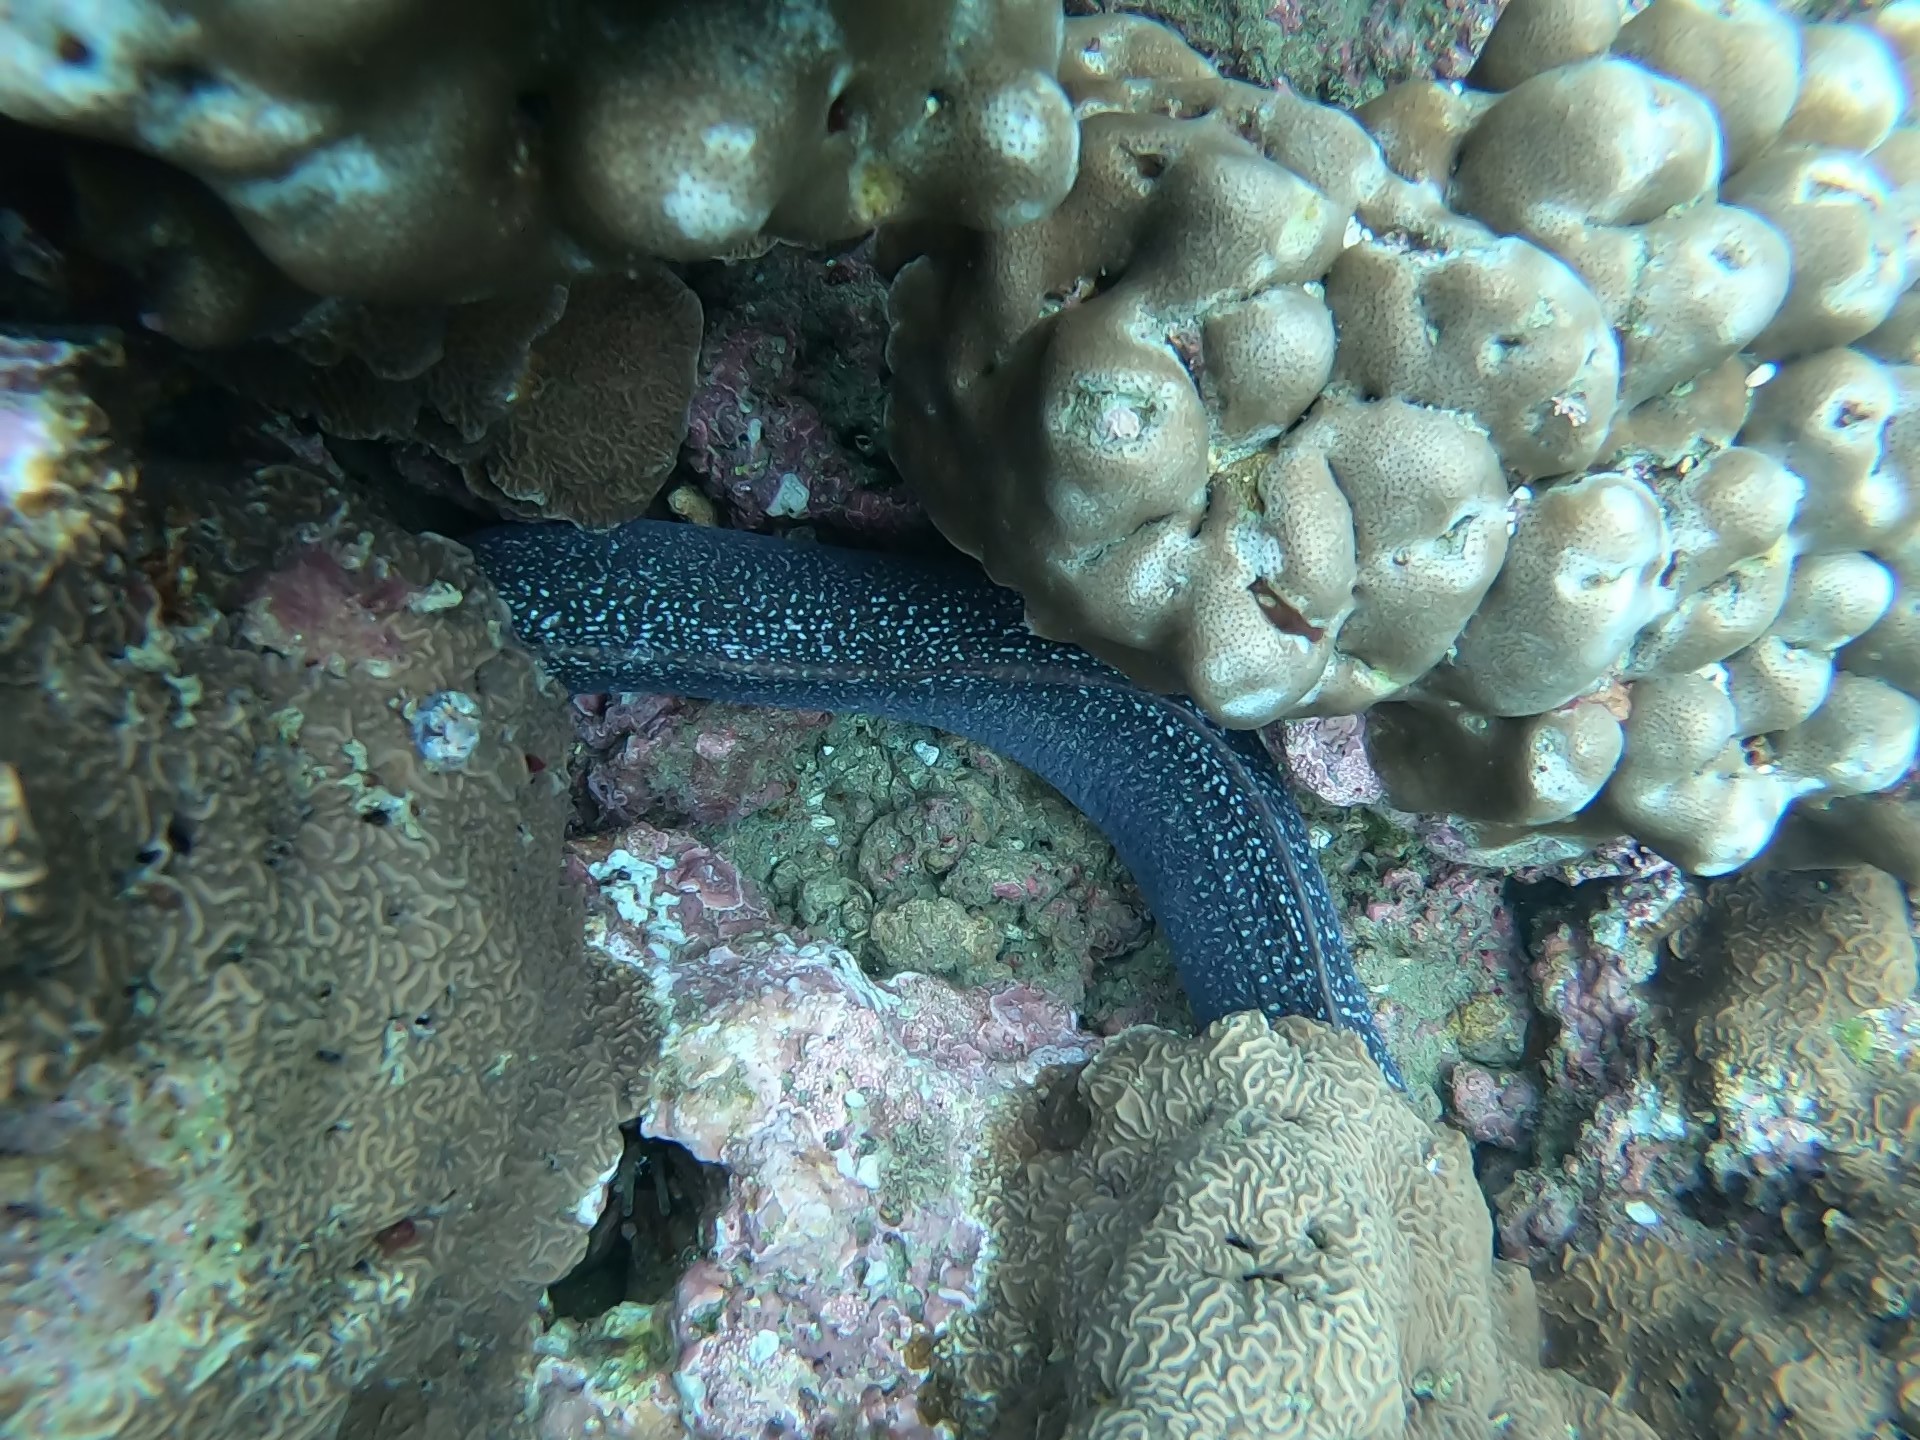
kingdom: Animalia
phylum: Chordata
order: Anguilliformes
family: Muraenidae
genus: Muraena
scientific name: Muraena clepsydra
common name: Hourglass moray
